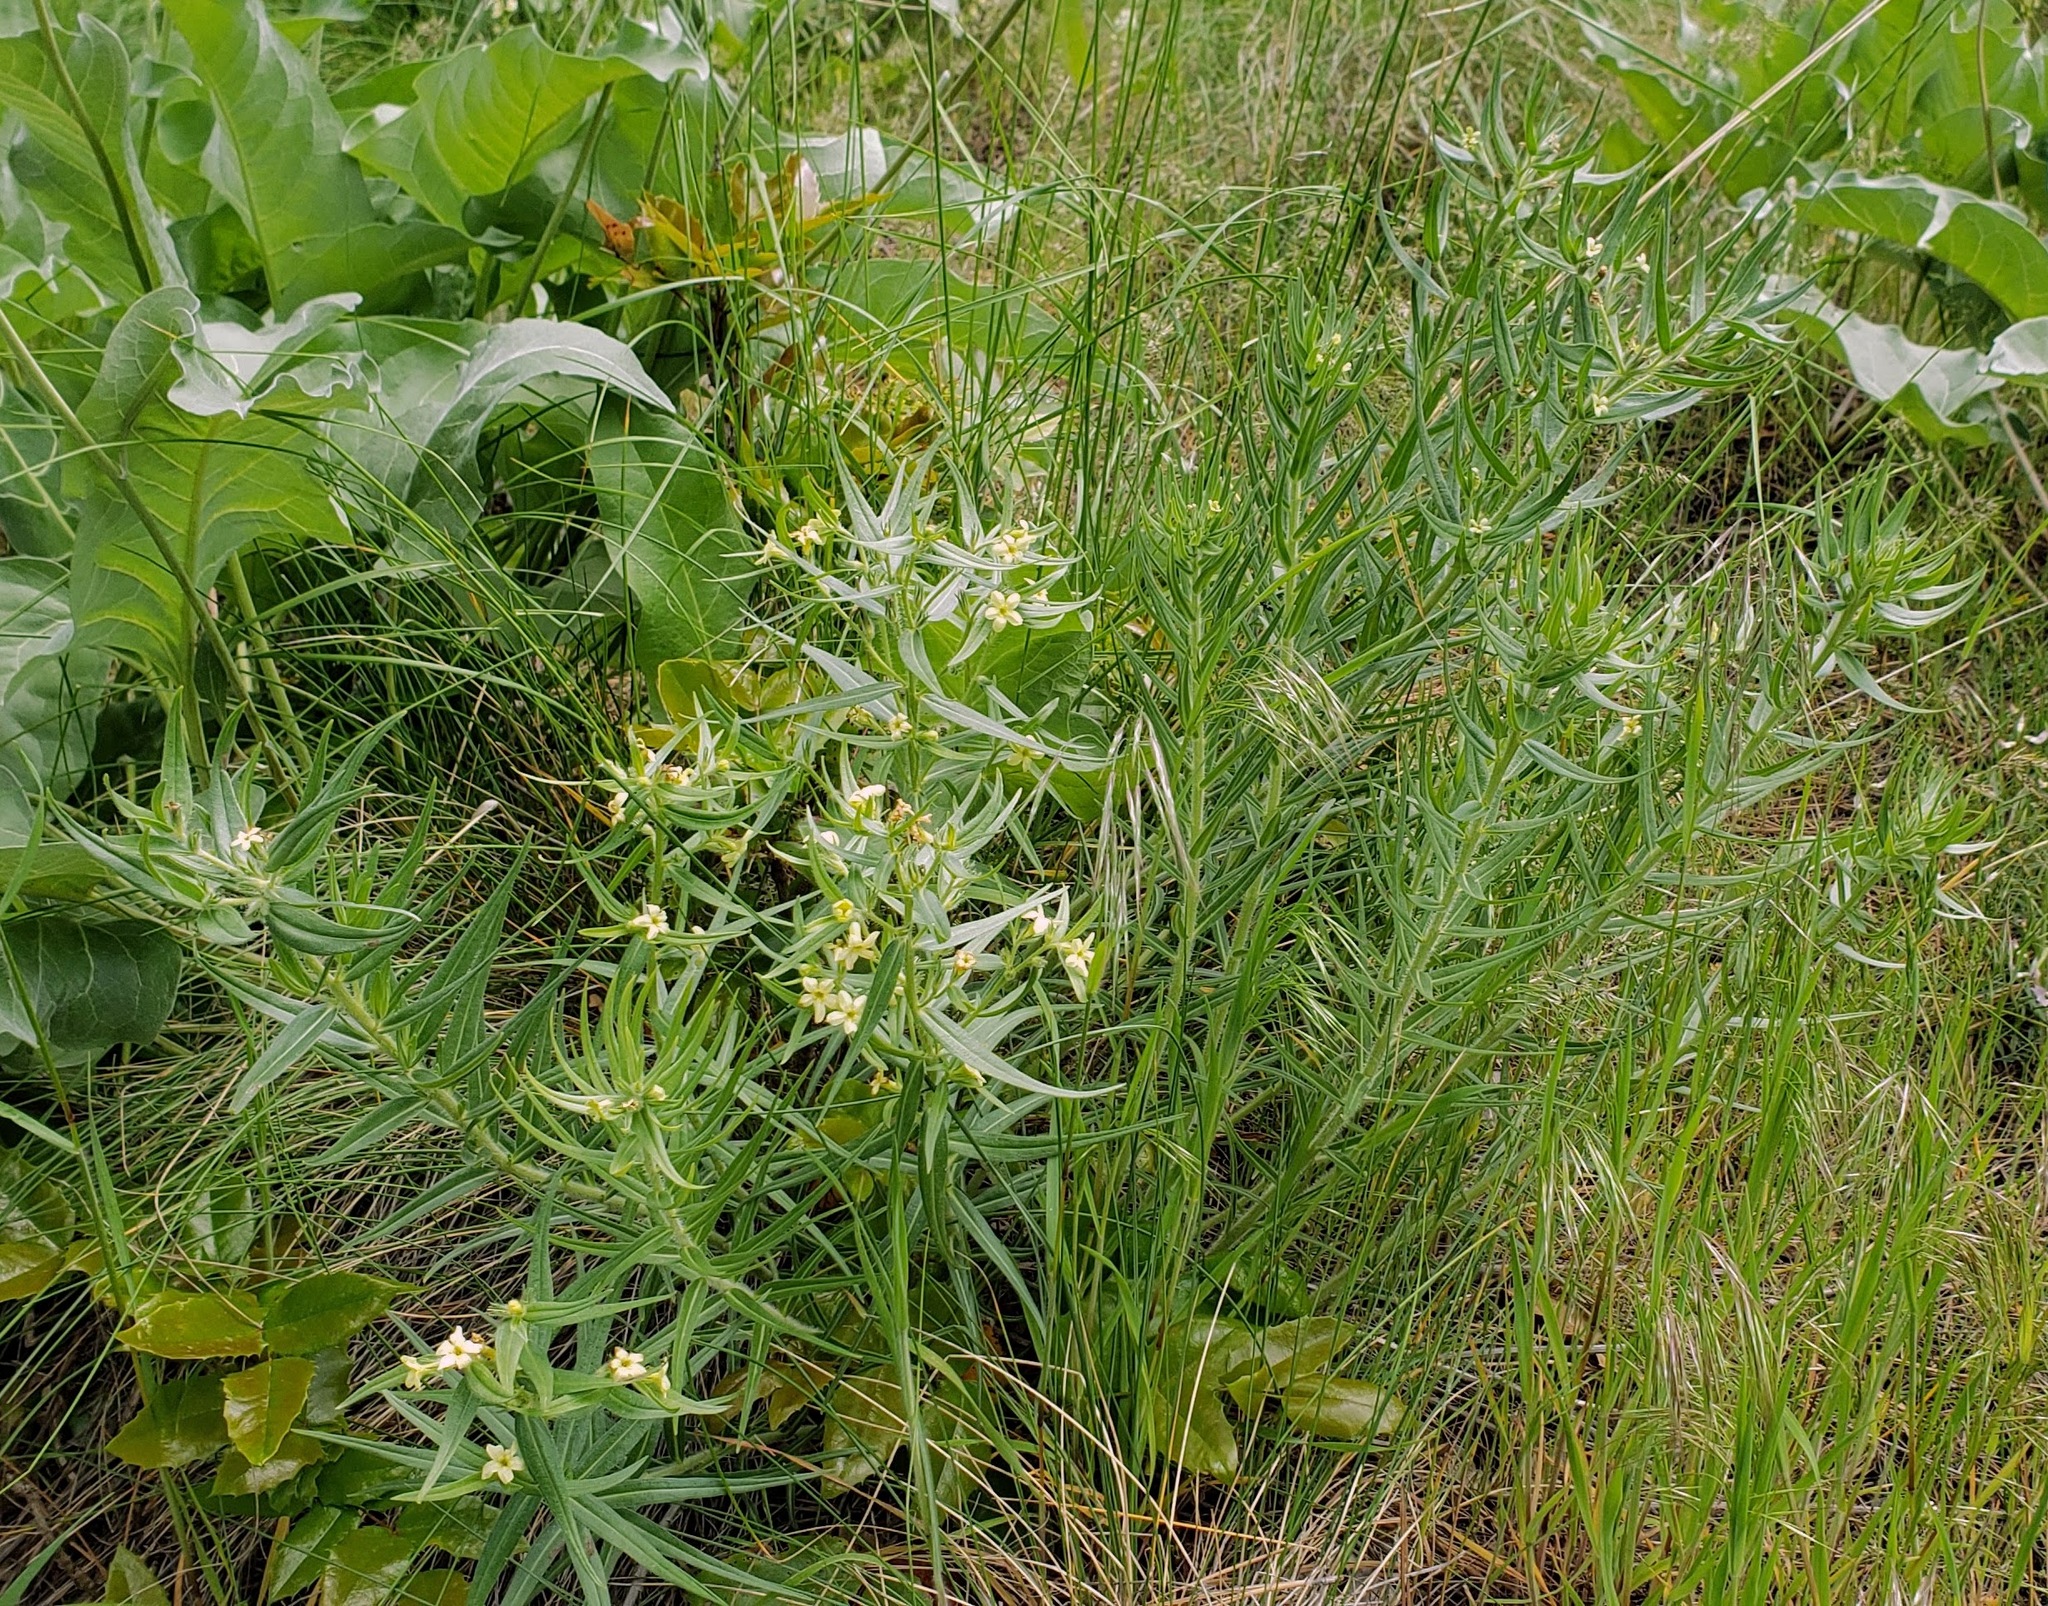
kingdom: Plantae
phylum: Tracheophyta
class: Magnoliopsida
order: Boraginales
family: Boraginaceae
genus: Lithospermum
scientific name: Lithospermum ruderale
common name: Western gromwell
